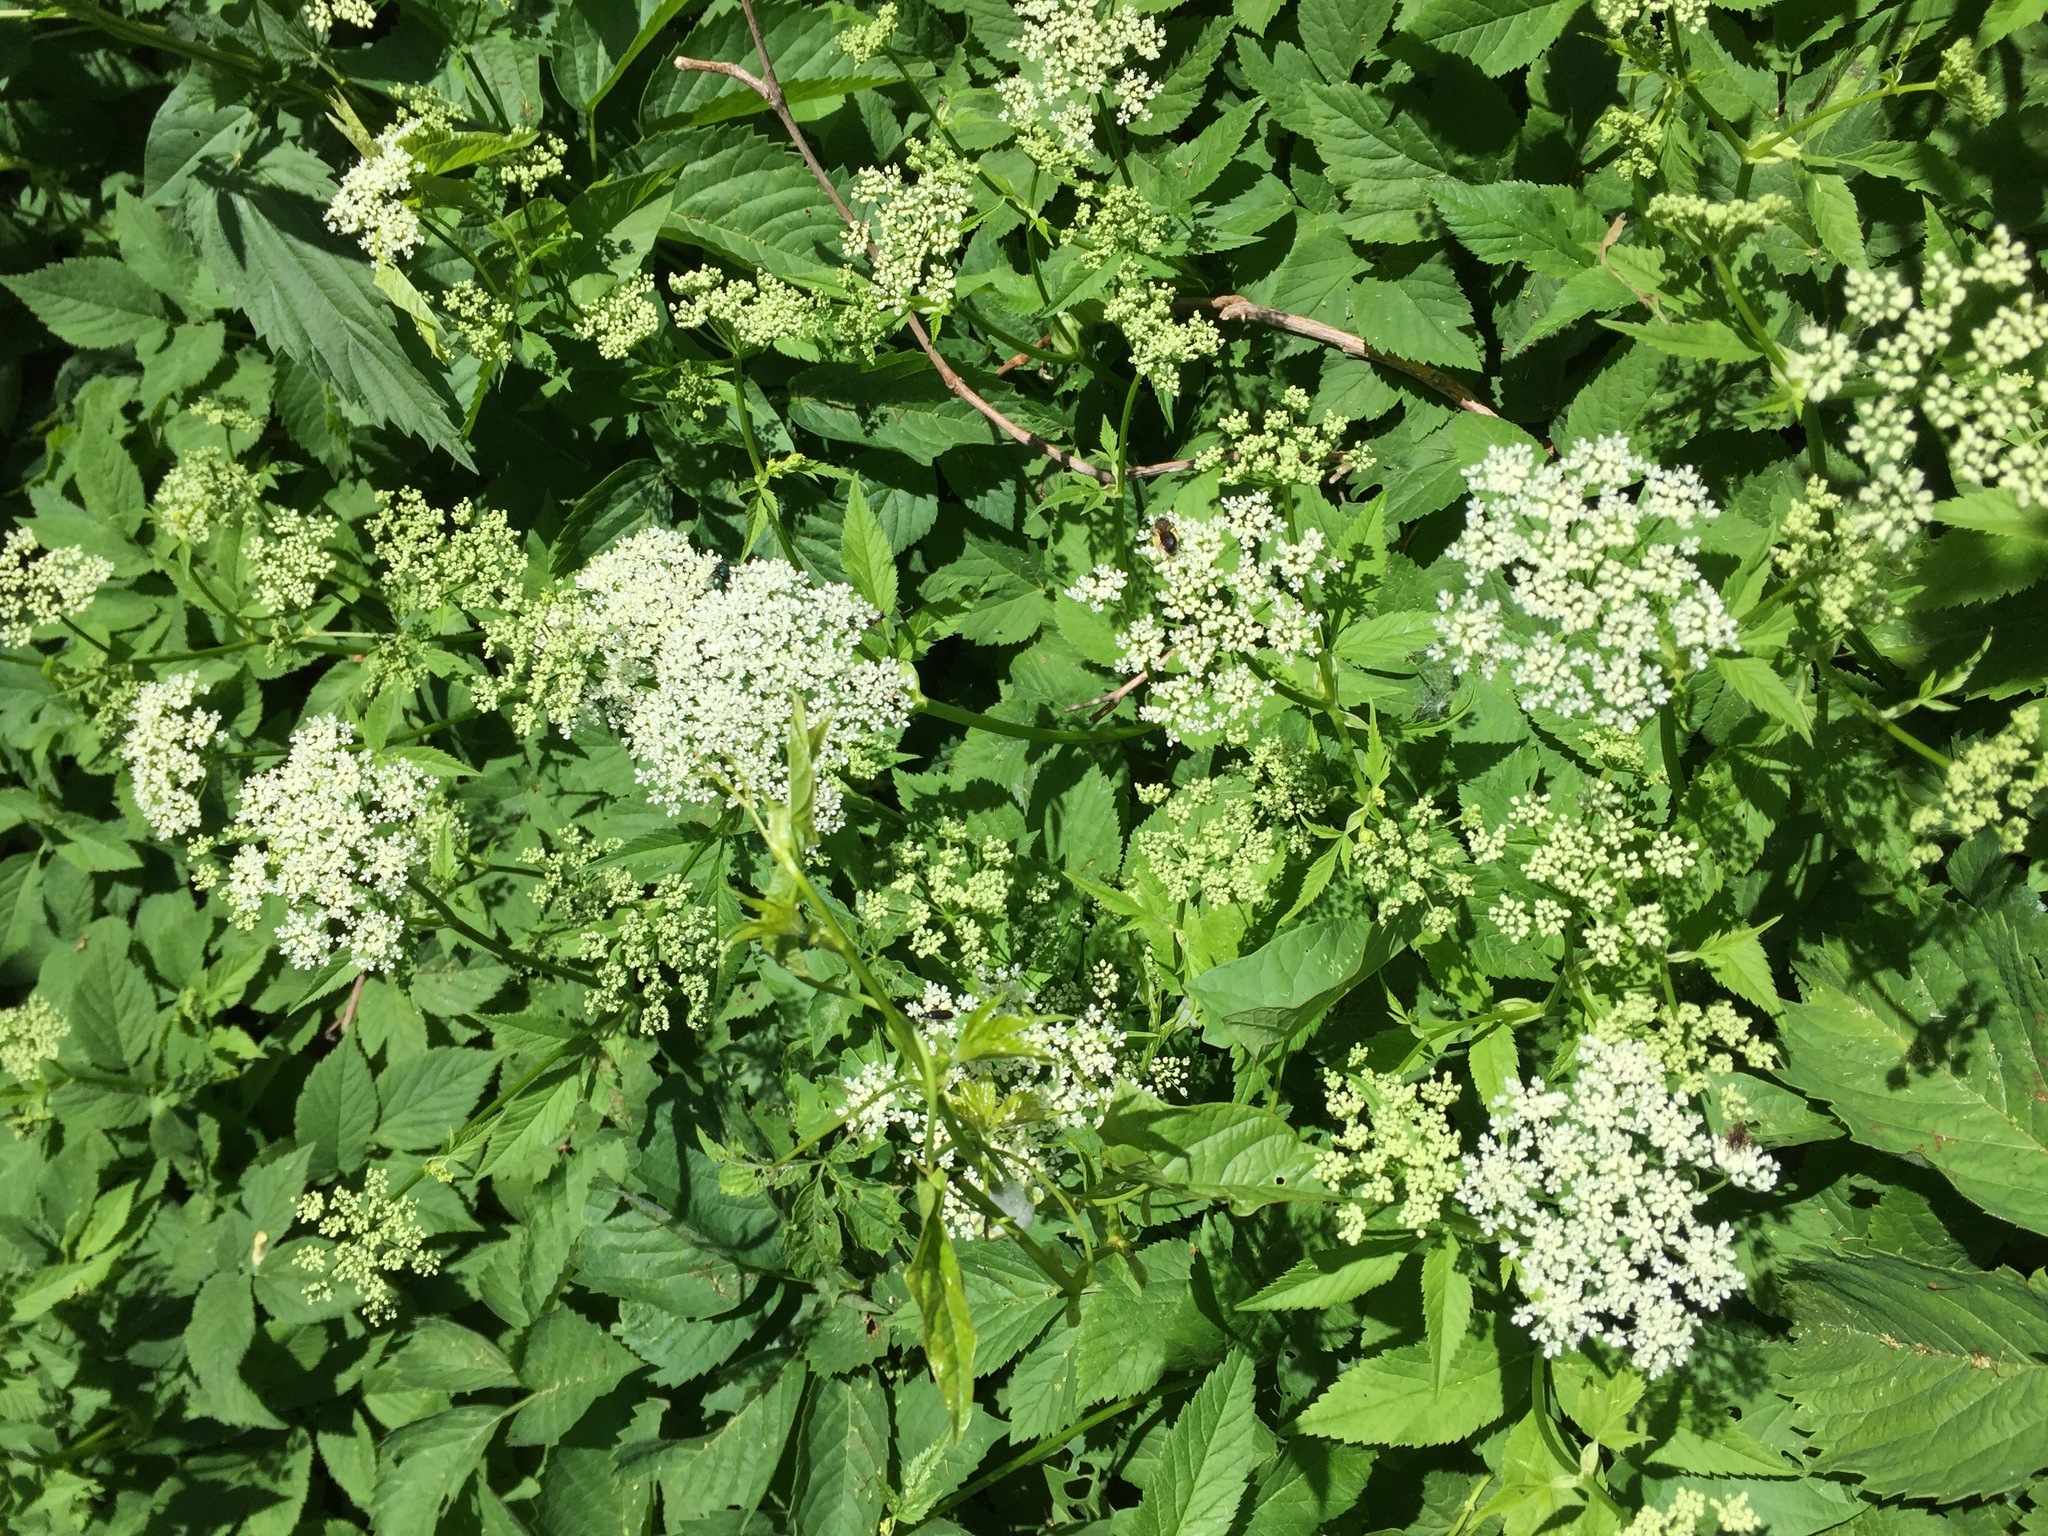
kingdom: Plantae
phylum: Tracheophyta
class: Magnoliopsida
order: Apiales
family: Apiaceae
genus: Aegopodium
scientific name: Aegopodium podagraria
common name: Ground-elder
